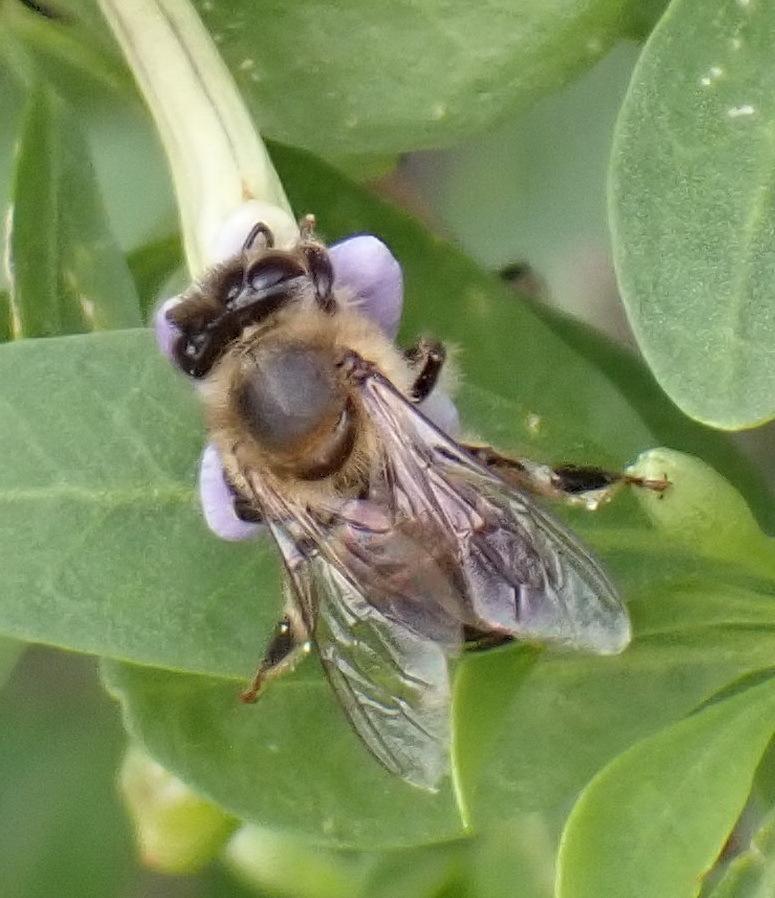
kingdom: Animalia
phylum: Arthropoda
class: Insecta
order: Hymenoptera
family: Apidae
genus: Apis
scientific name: Apis mellifera
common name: Honey bee
